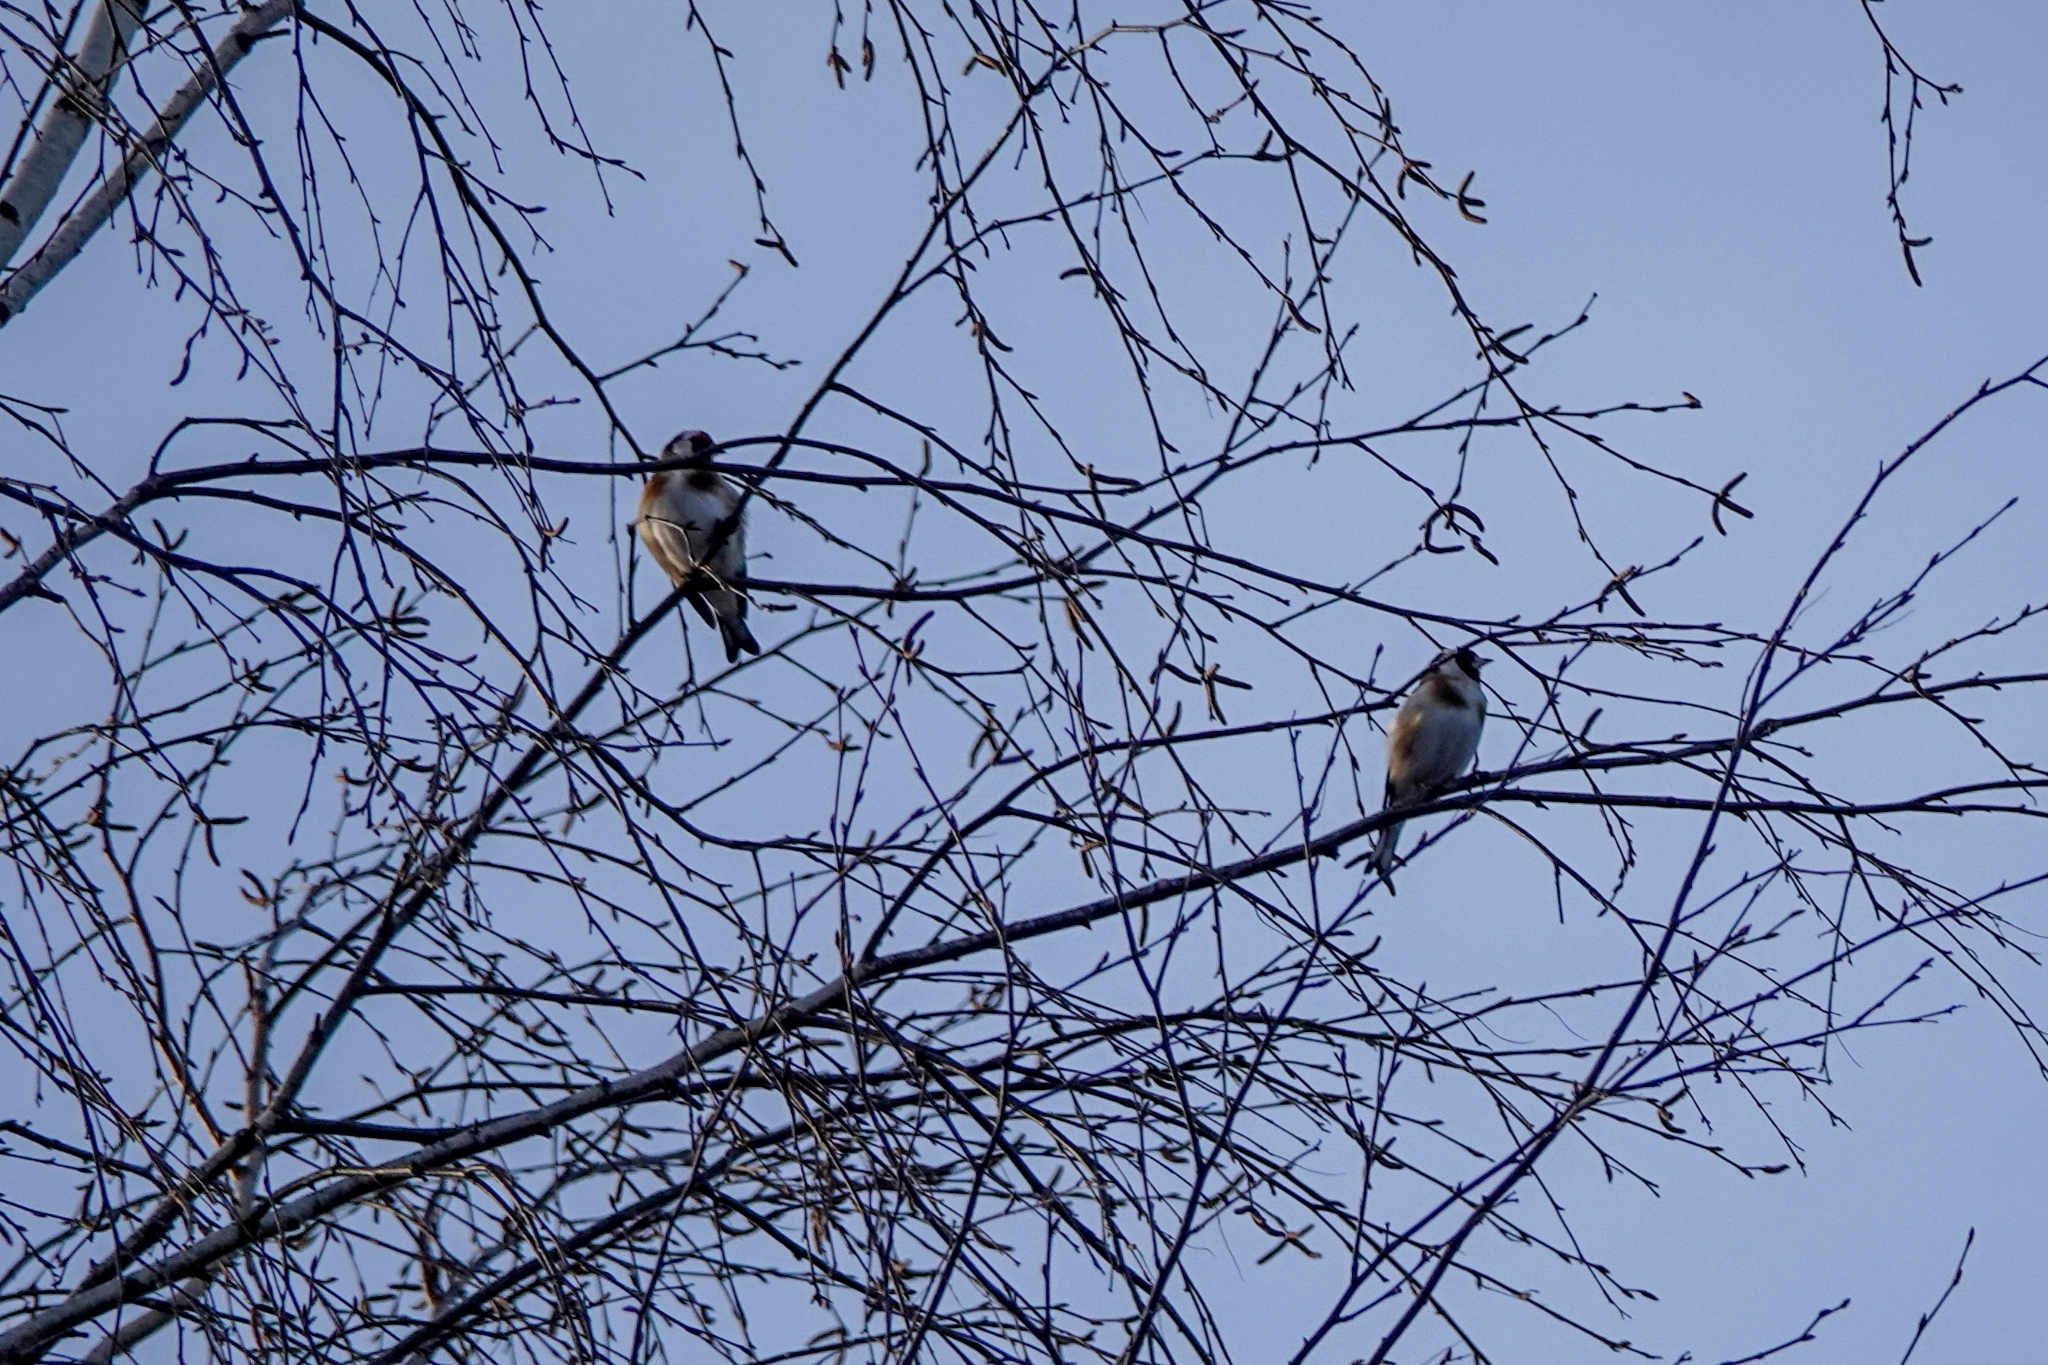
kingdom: Animalia
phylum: Chordata
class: Aves
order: Passeriformes
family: Fringillidae
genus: Carduelis
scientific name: Carduelis carduelis
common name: European goldfinch
